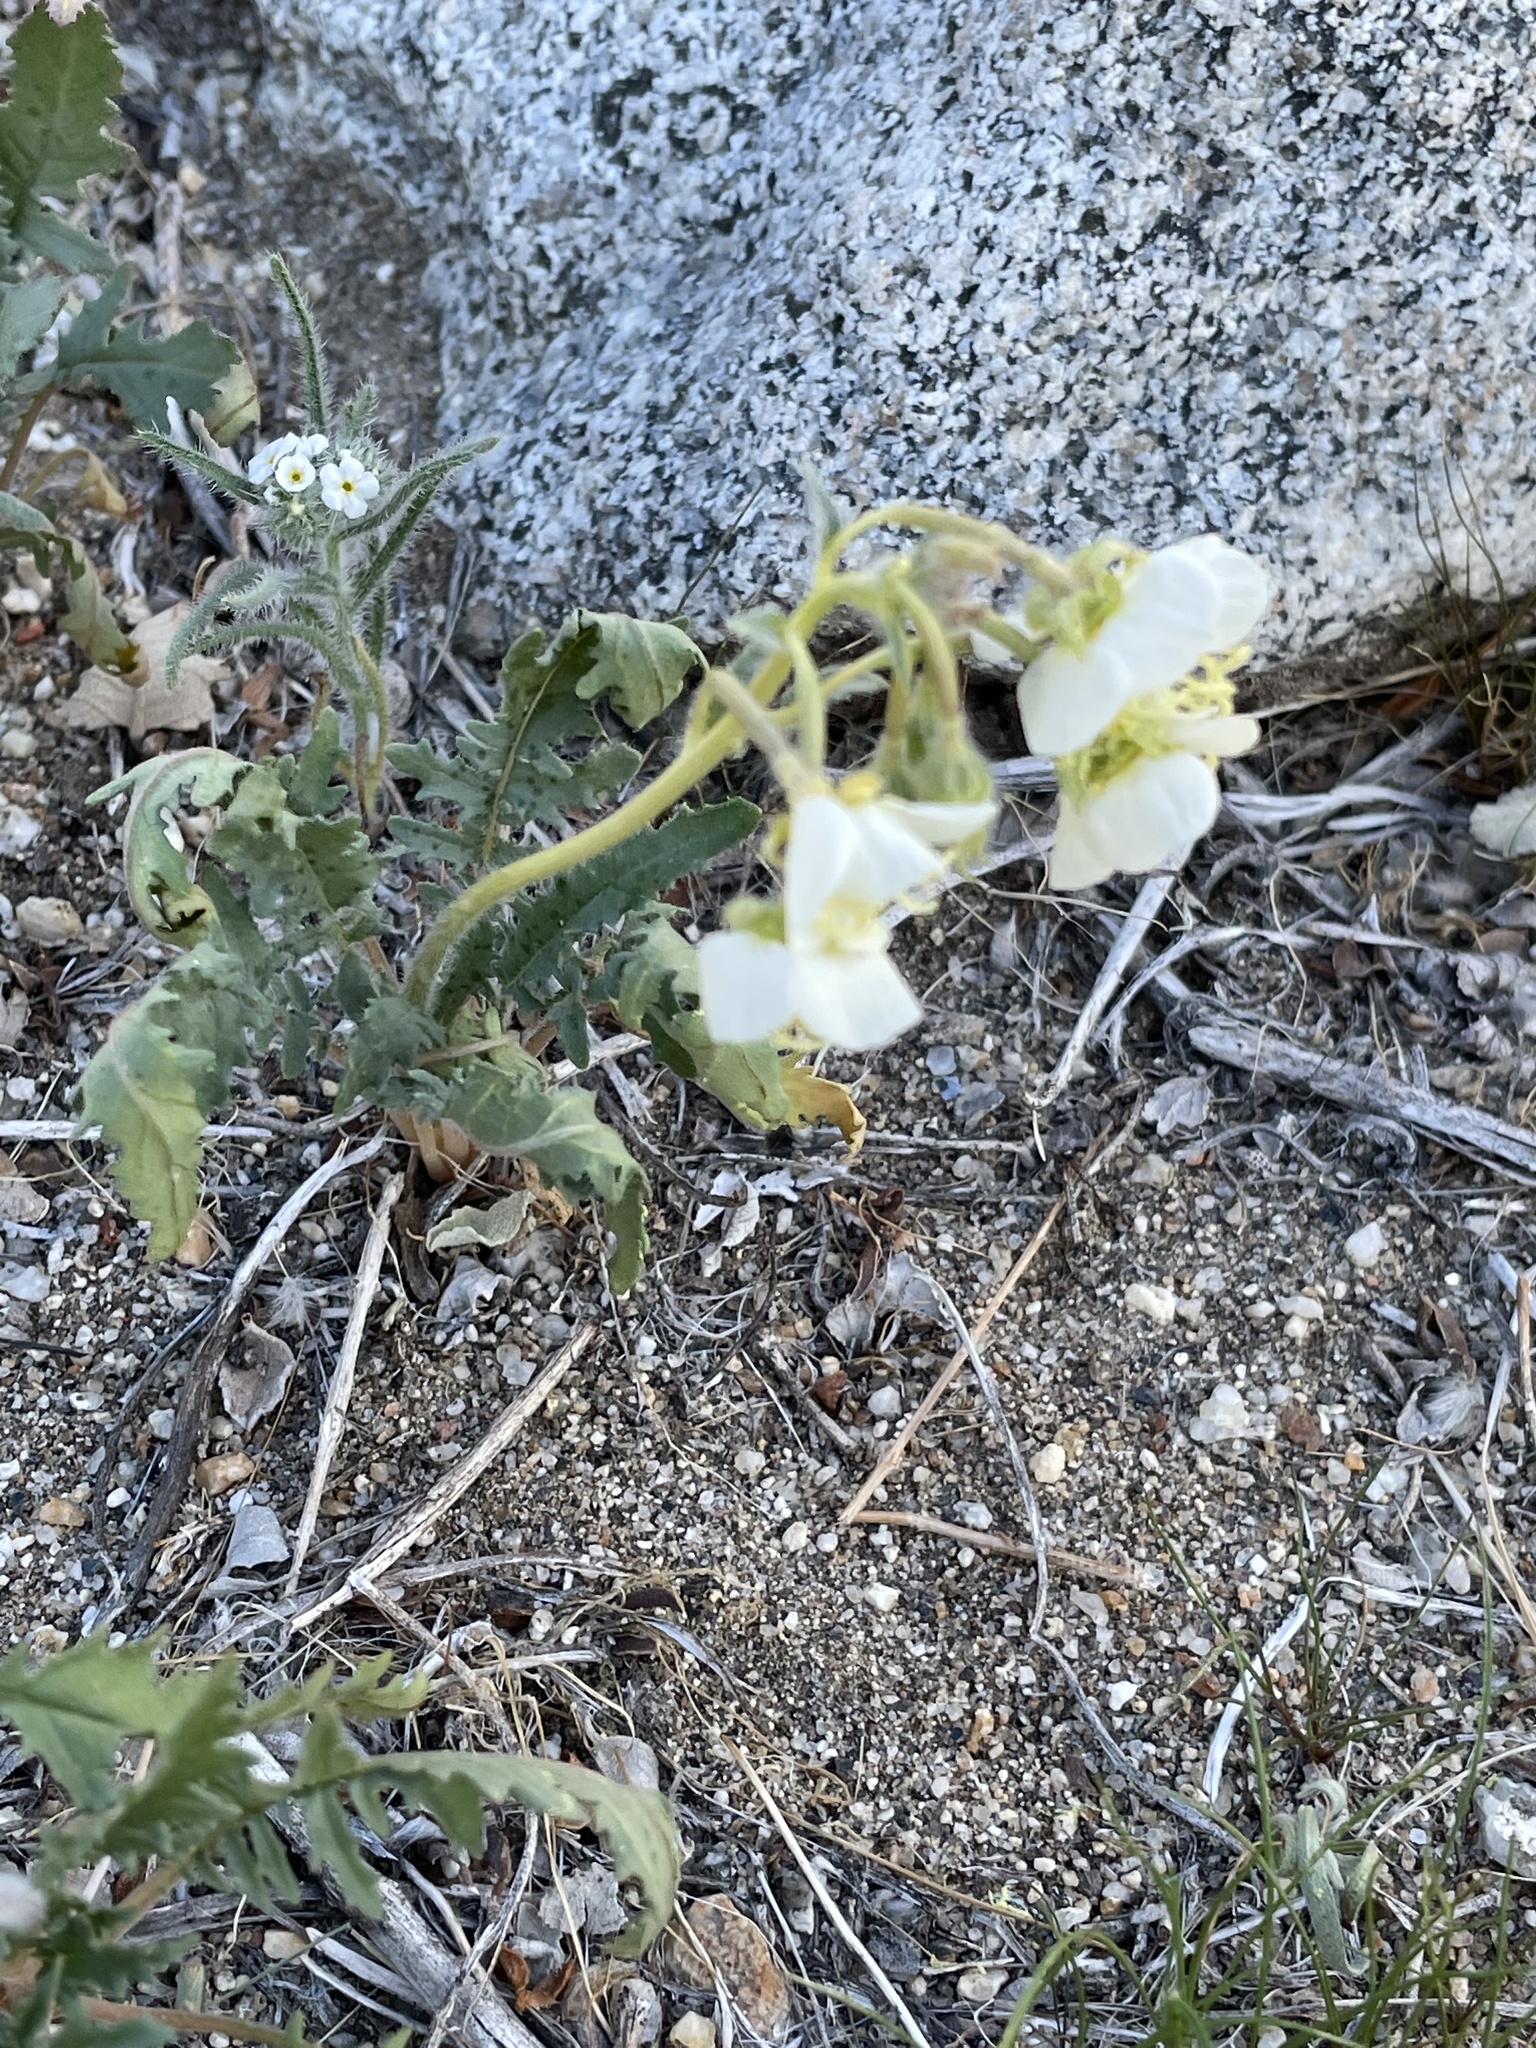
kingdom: Plantae
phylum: Tracheophyta
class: Magnoliopsida
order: Myrtales
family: Onagraceae
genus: Chylismia
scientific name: Chylismia claviformis
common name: Browneyes
